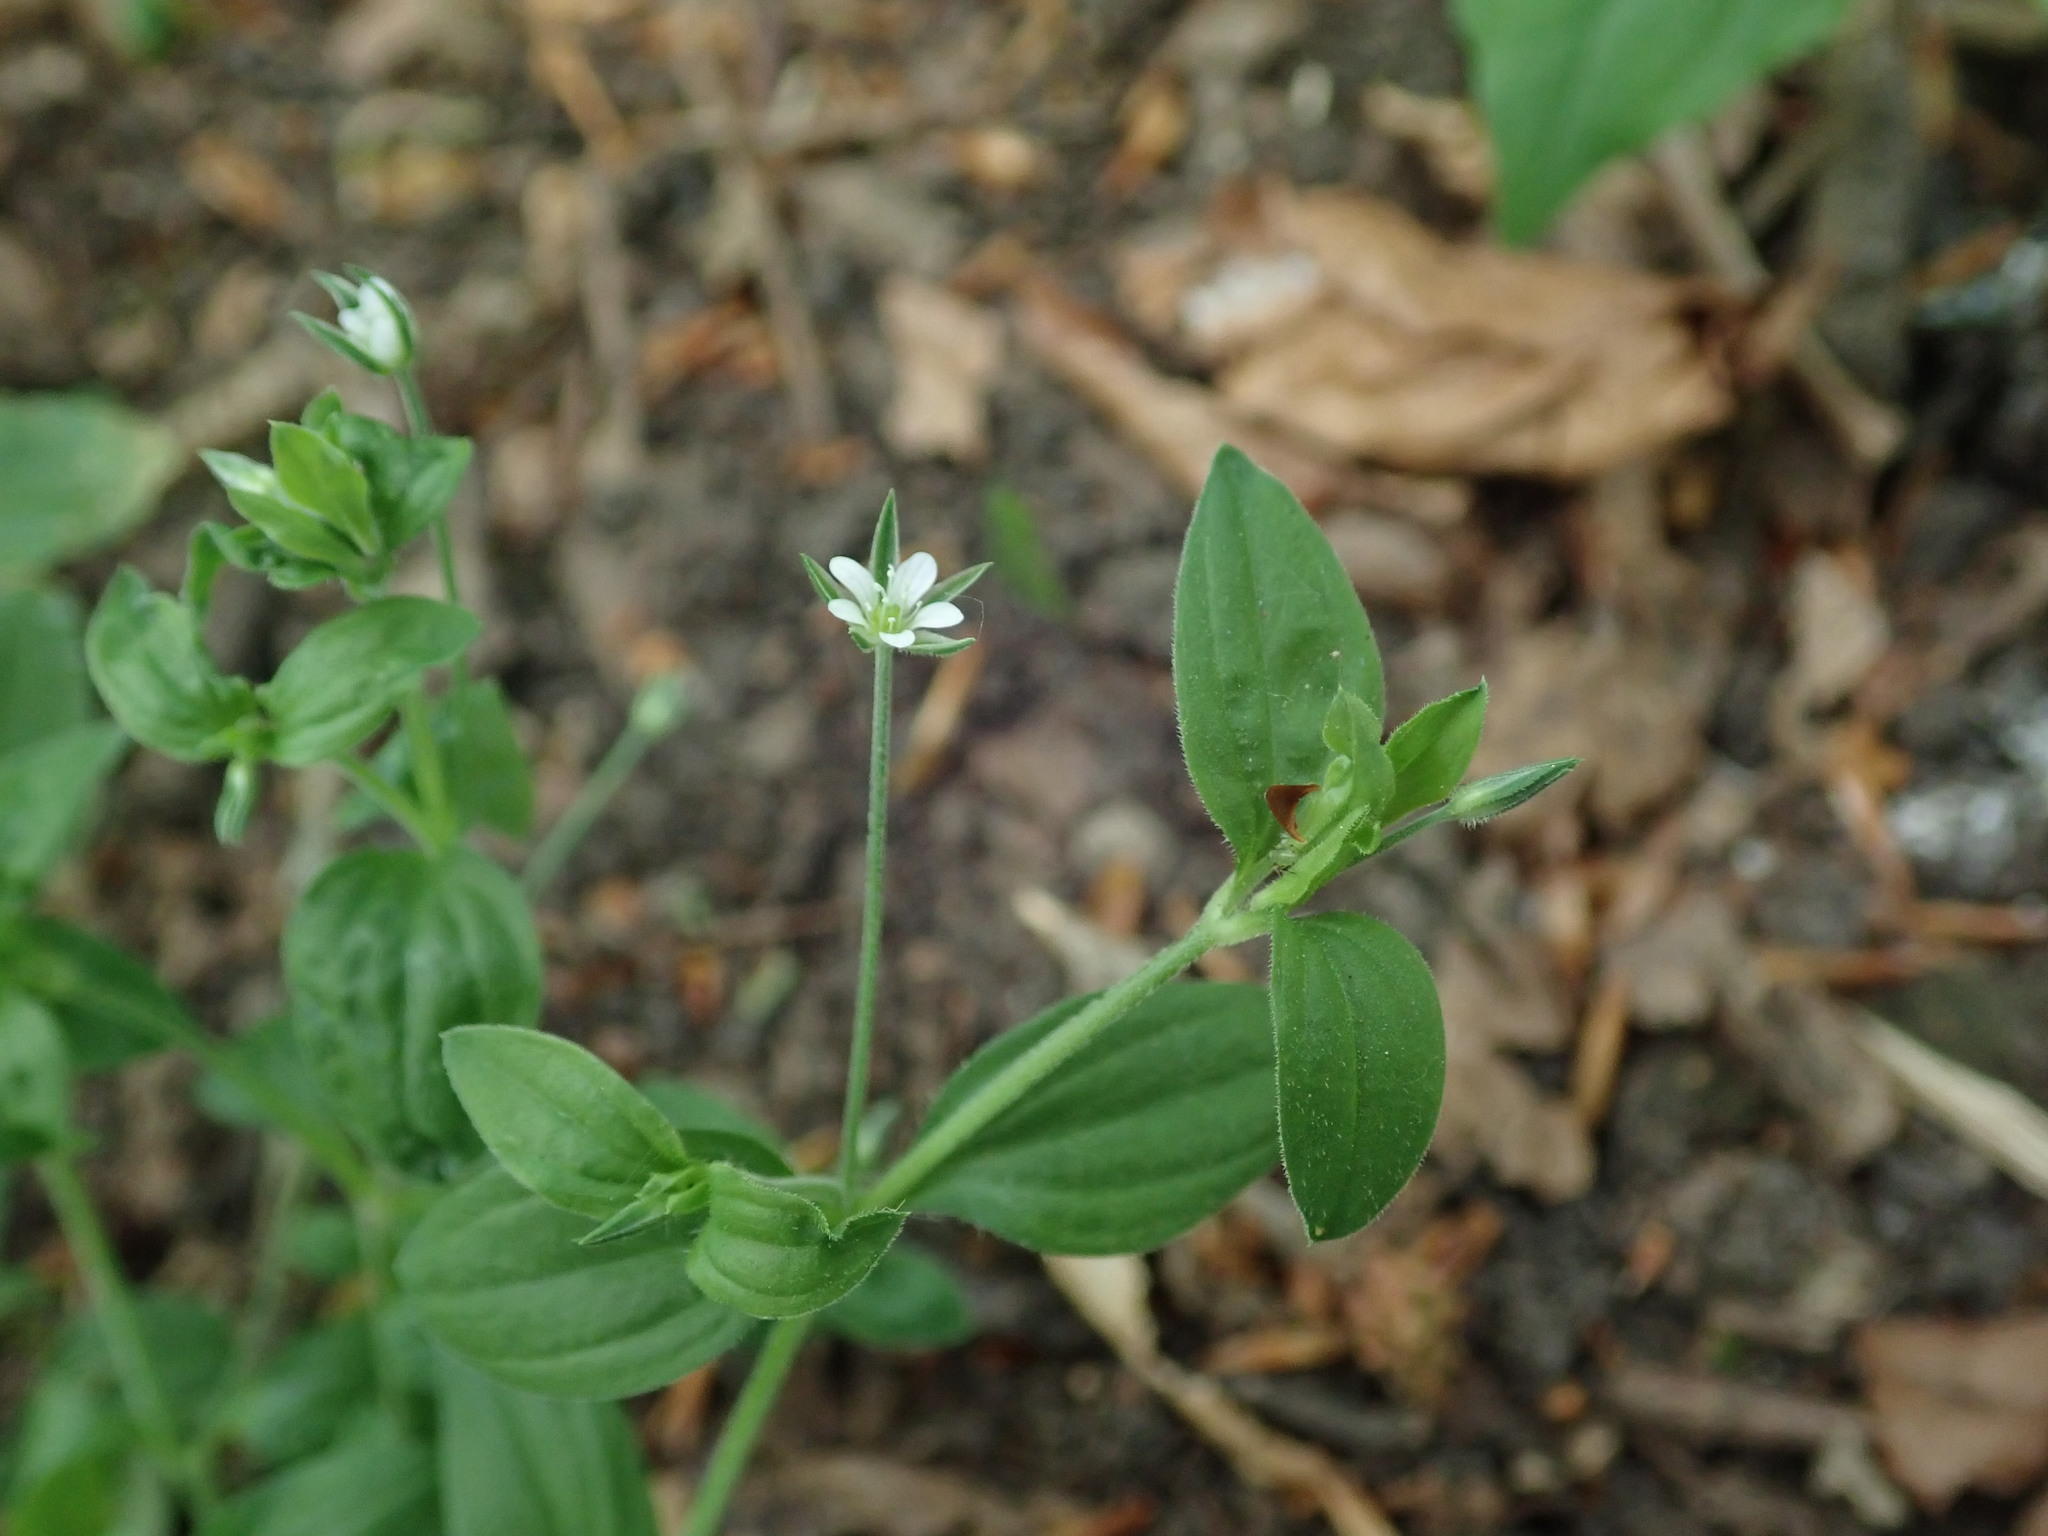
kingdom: Plantae
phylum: Tracheophyta
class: Magnoliopsida
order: Caryophyllales
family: Caryophyllaceae
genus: Moehringia
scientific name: Moehringia trinervia
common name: Three-nerved sandwort
